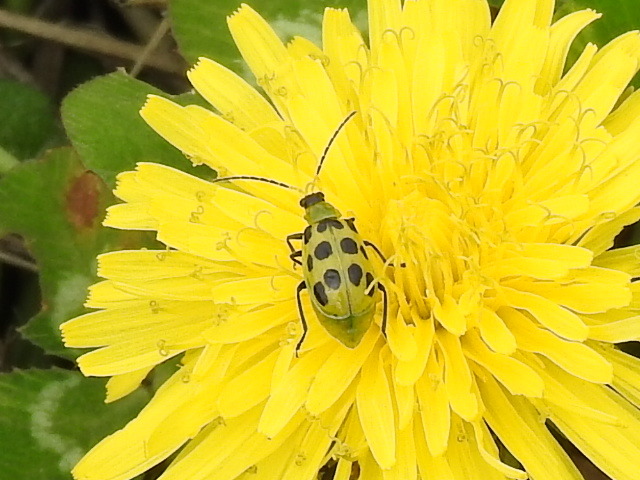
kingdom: Animalia
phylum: Arthropoda
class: Insecta
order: Coleoptera
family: Chrysomelidae
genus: Diabrotica
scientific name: Diabrotica undecimpunctata
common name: Spotted cucumber beetle
